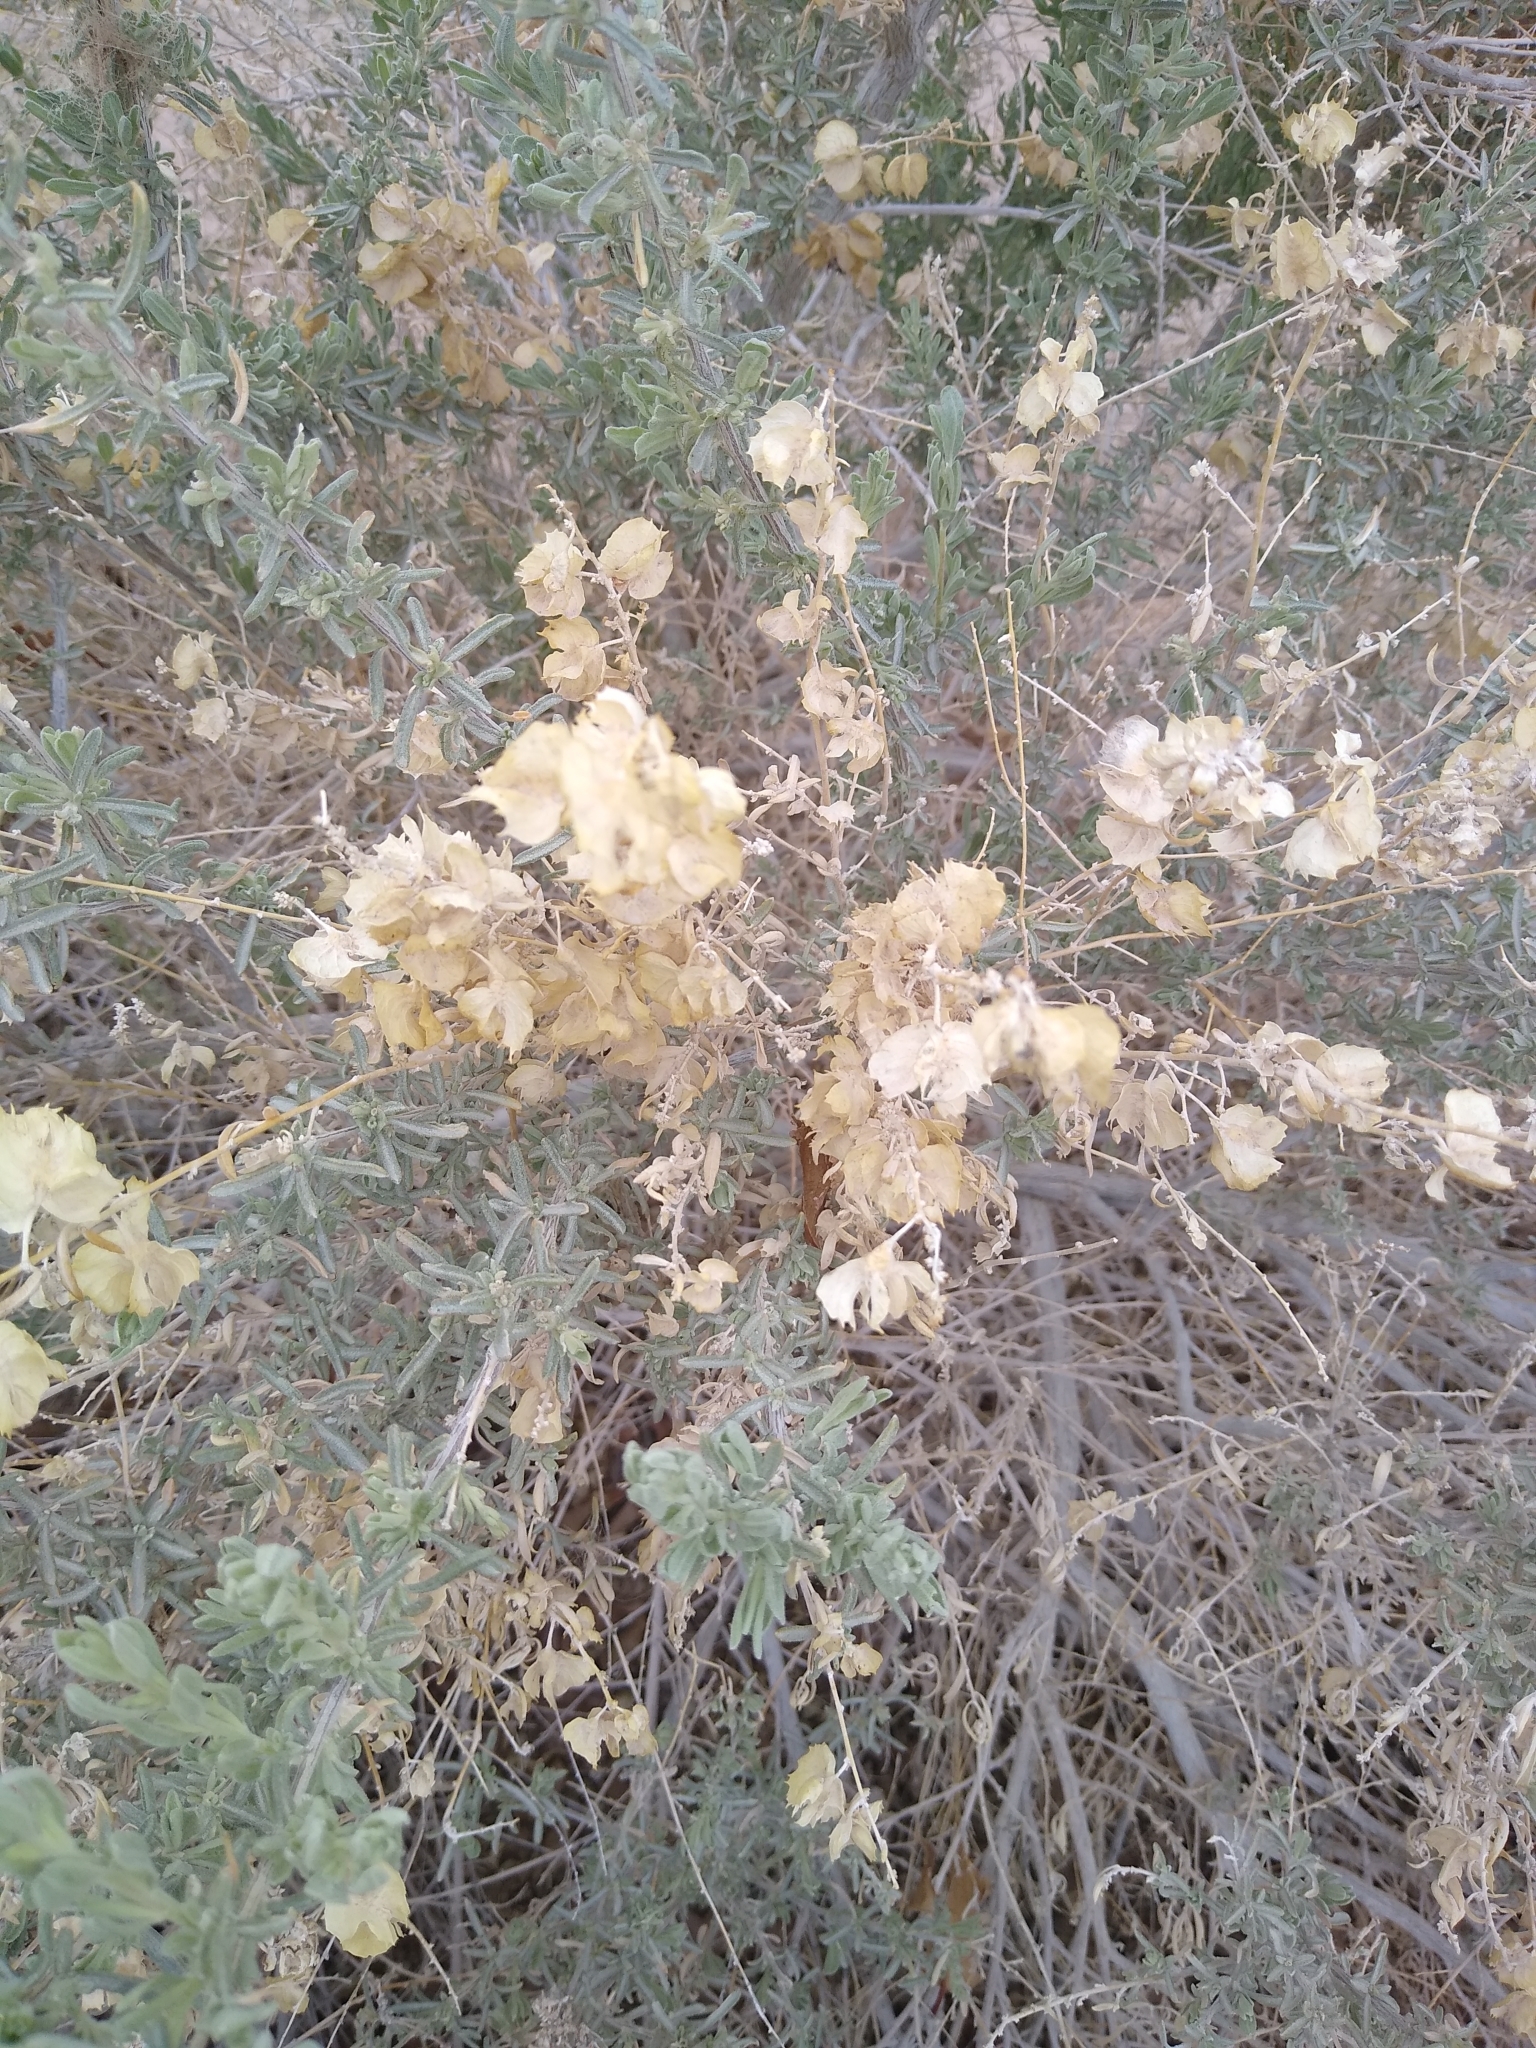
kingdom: Plantae
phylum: Tracheophyta
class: Magnoliopsida
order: Caryophyllales
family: Amaranthaceae
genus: Atriplex
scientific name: Atriplex canescens
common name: Four-wing saltbush
